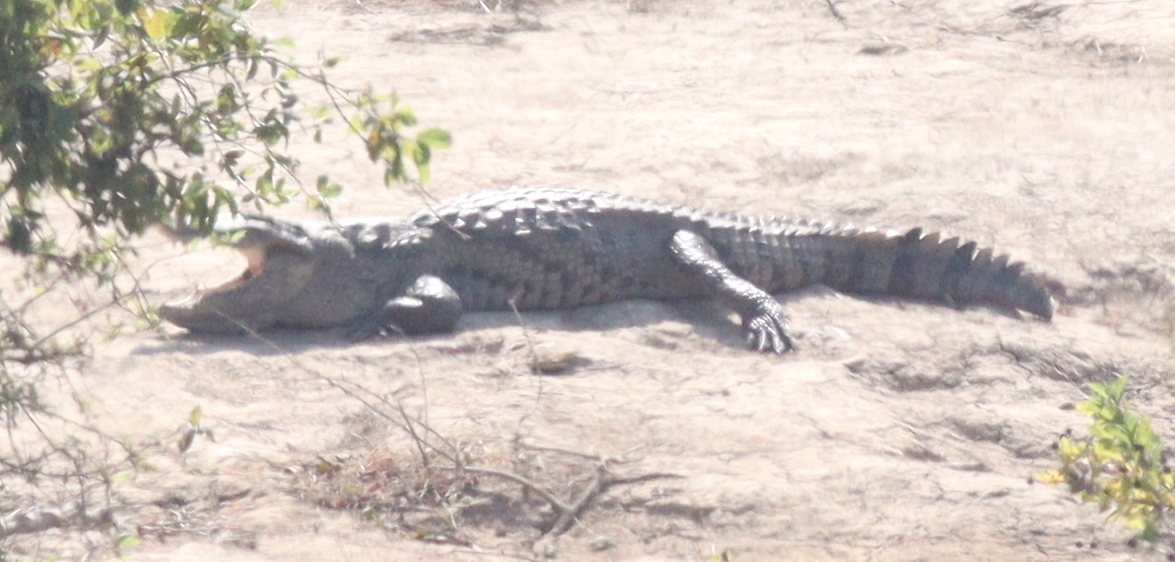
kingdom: Animalia
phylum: Chordata
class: Crocodylia
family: Crocodylidae
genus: Crocodylus
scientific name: Crocodylus suchus
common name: West african crocodile
